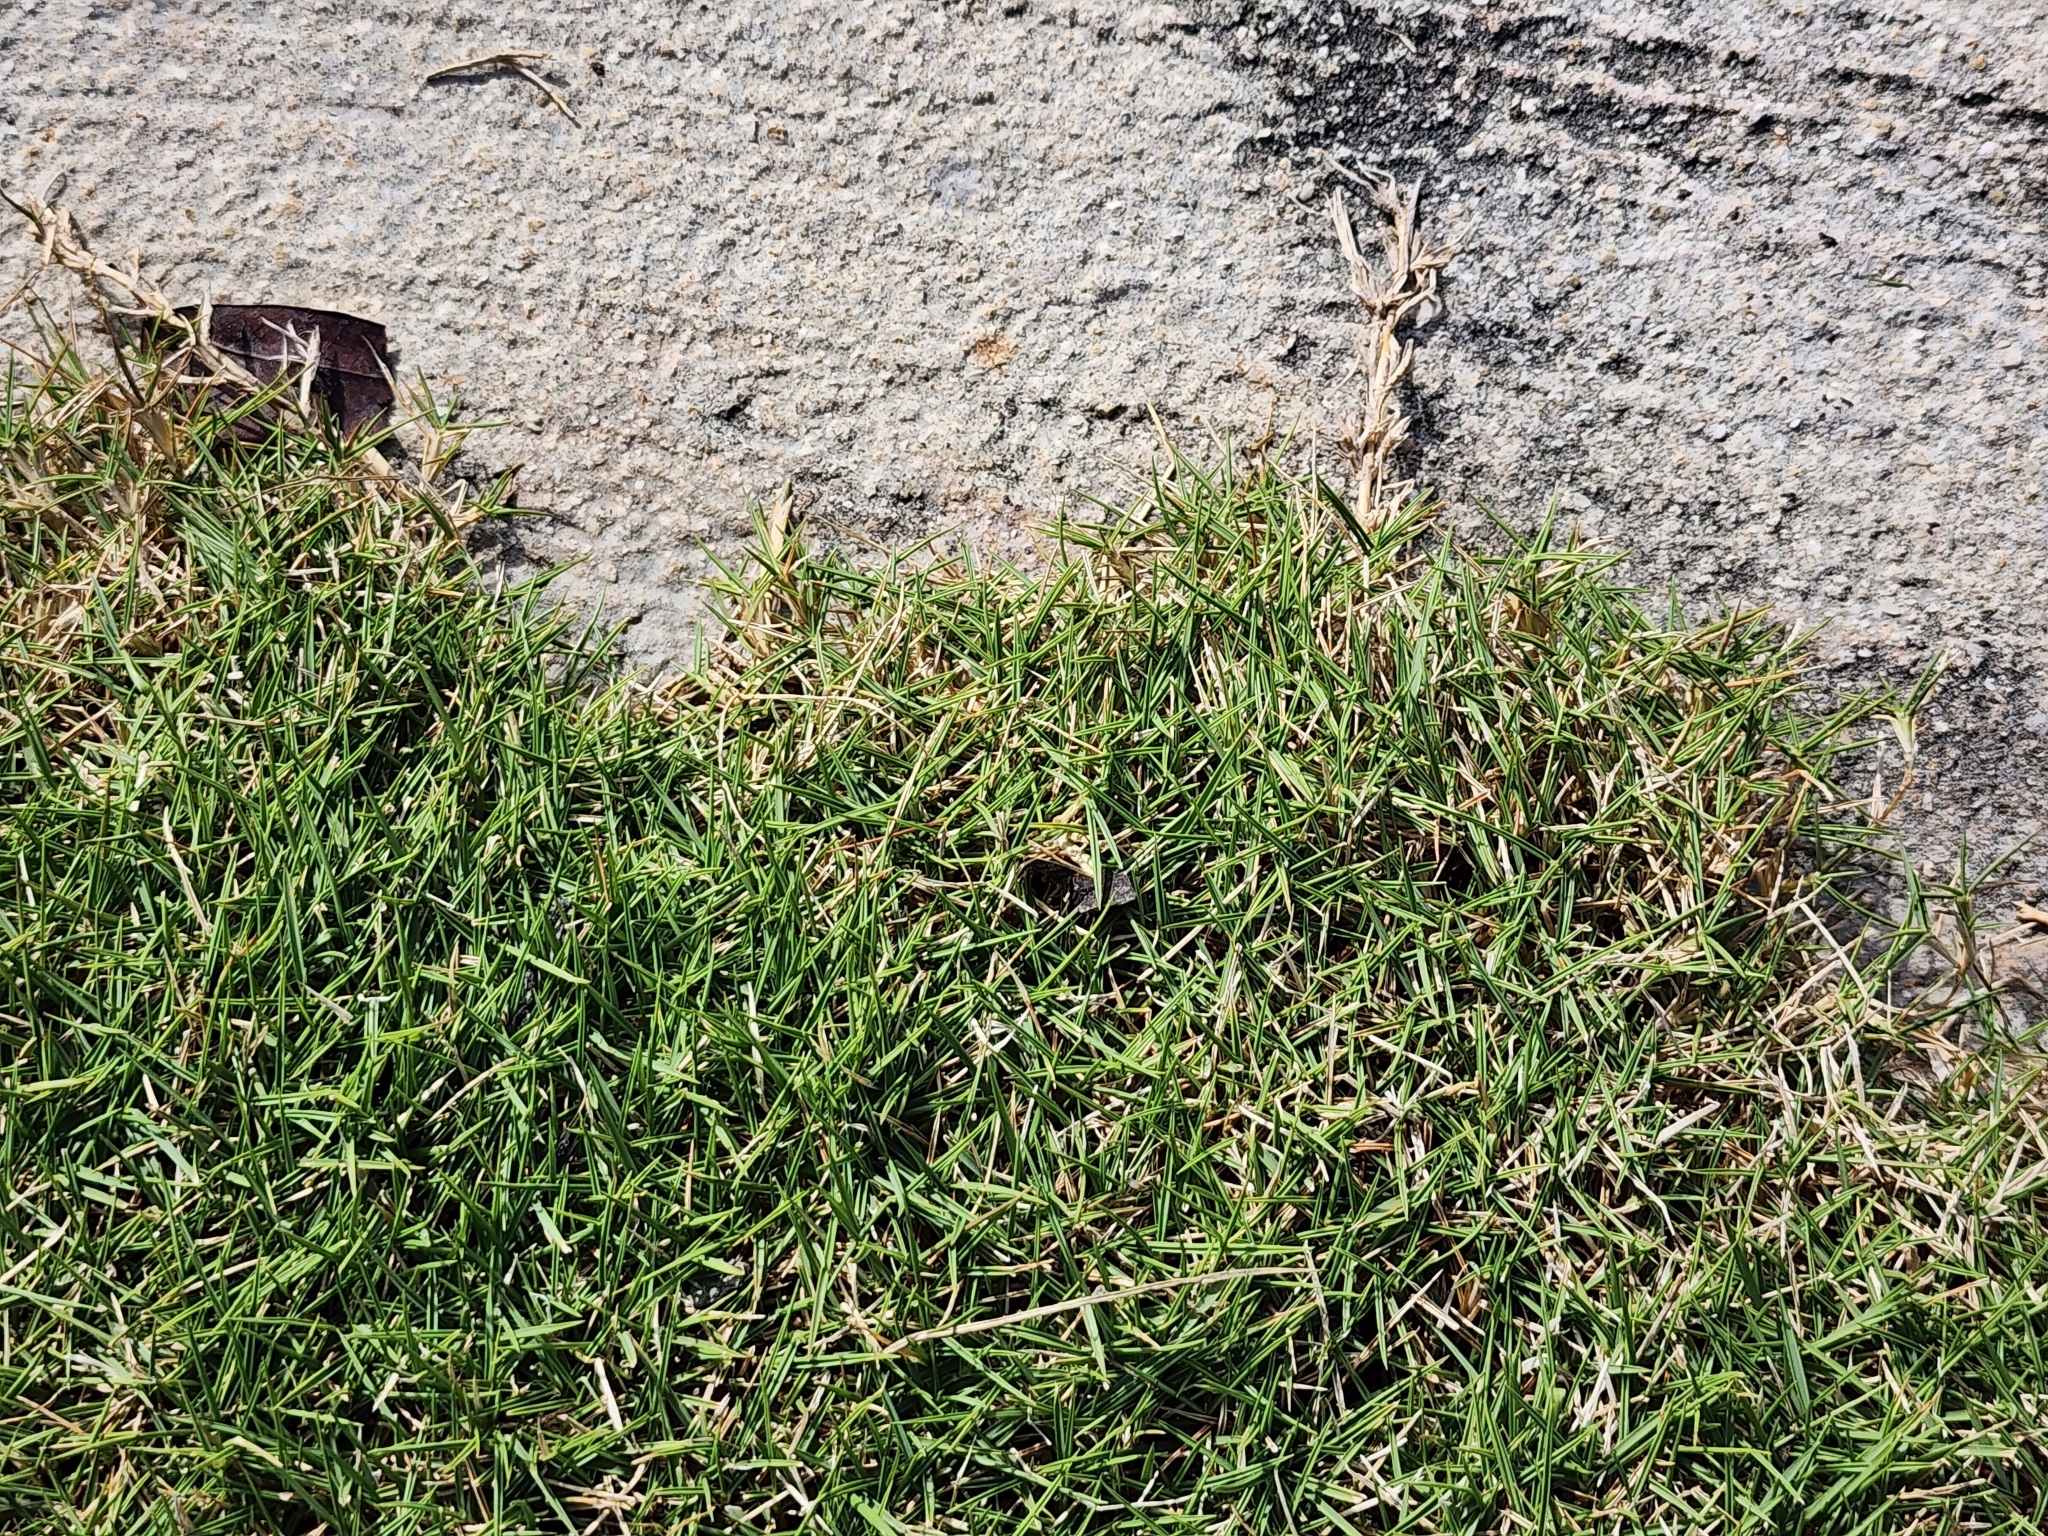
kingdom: Plantae
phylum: Tracheophyta
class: Liliopsida
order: Poales
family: Poaceae
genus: Cynodon
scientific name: Cynodon dactylon
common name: Bermuda grass
